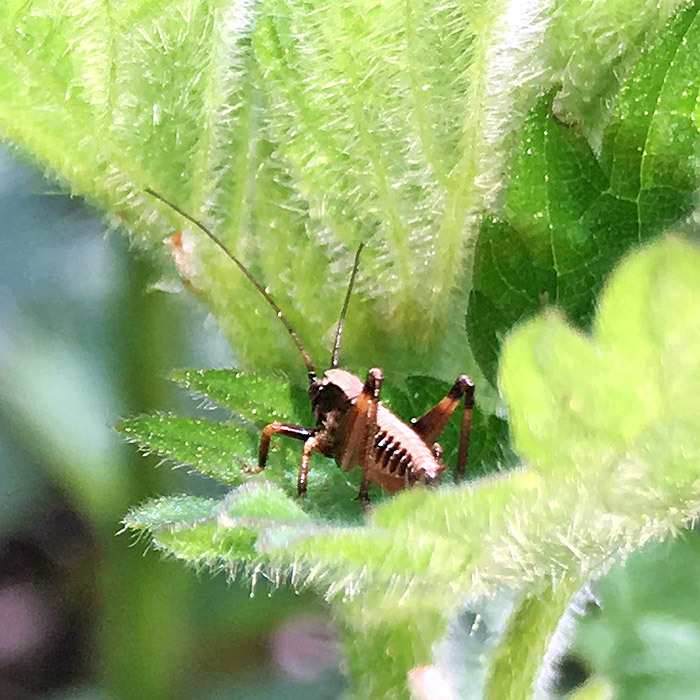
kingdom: Animalia
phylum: Arthropoda
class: Insecta
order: Orthoptera
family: Tettigoniidae
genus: Pholidoptera
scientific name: Pholidoptera griseoaptera
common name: Dark bush-cricket
